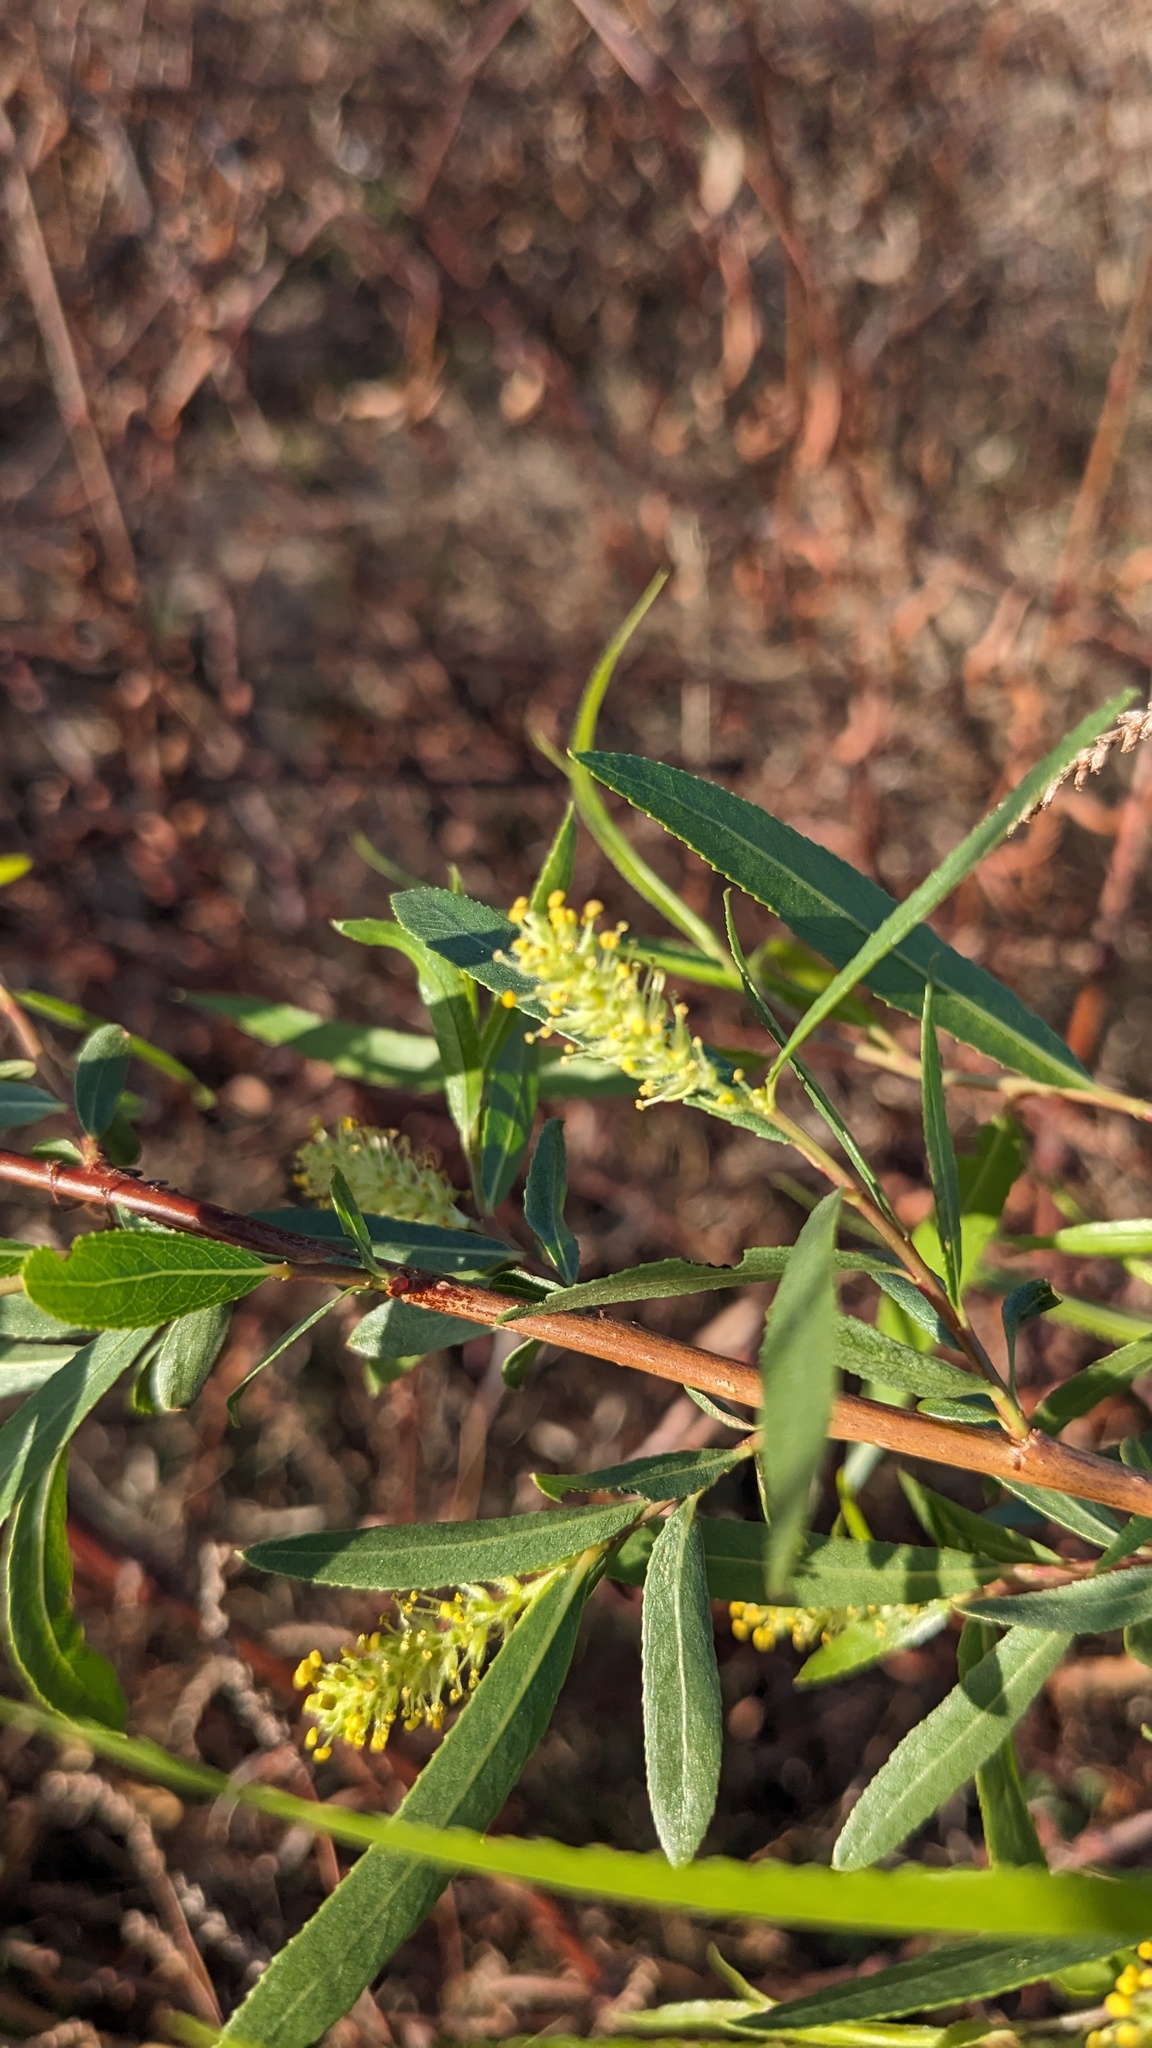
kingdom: Plantae
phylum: Tracheophyta
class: Magnoliopsida
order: Malpighiales
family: Salicaceae
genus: Salix
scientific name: Salix nigra
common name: Black willow
